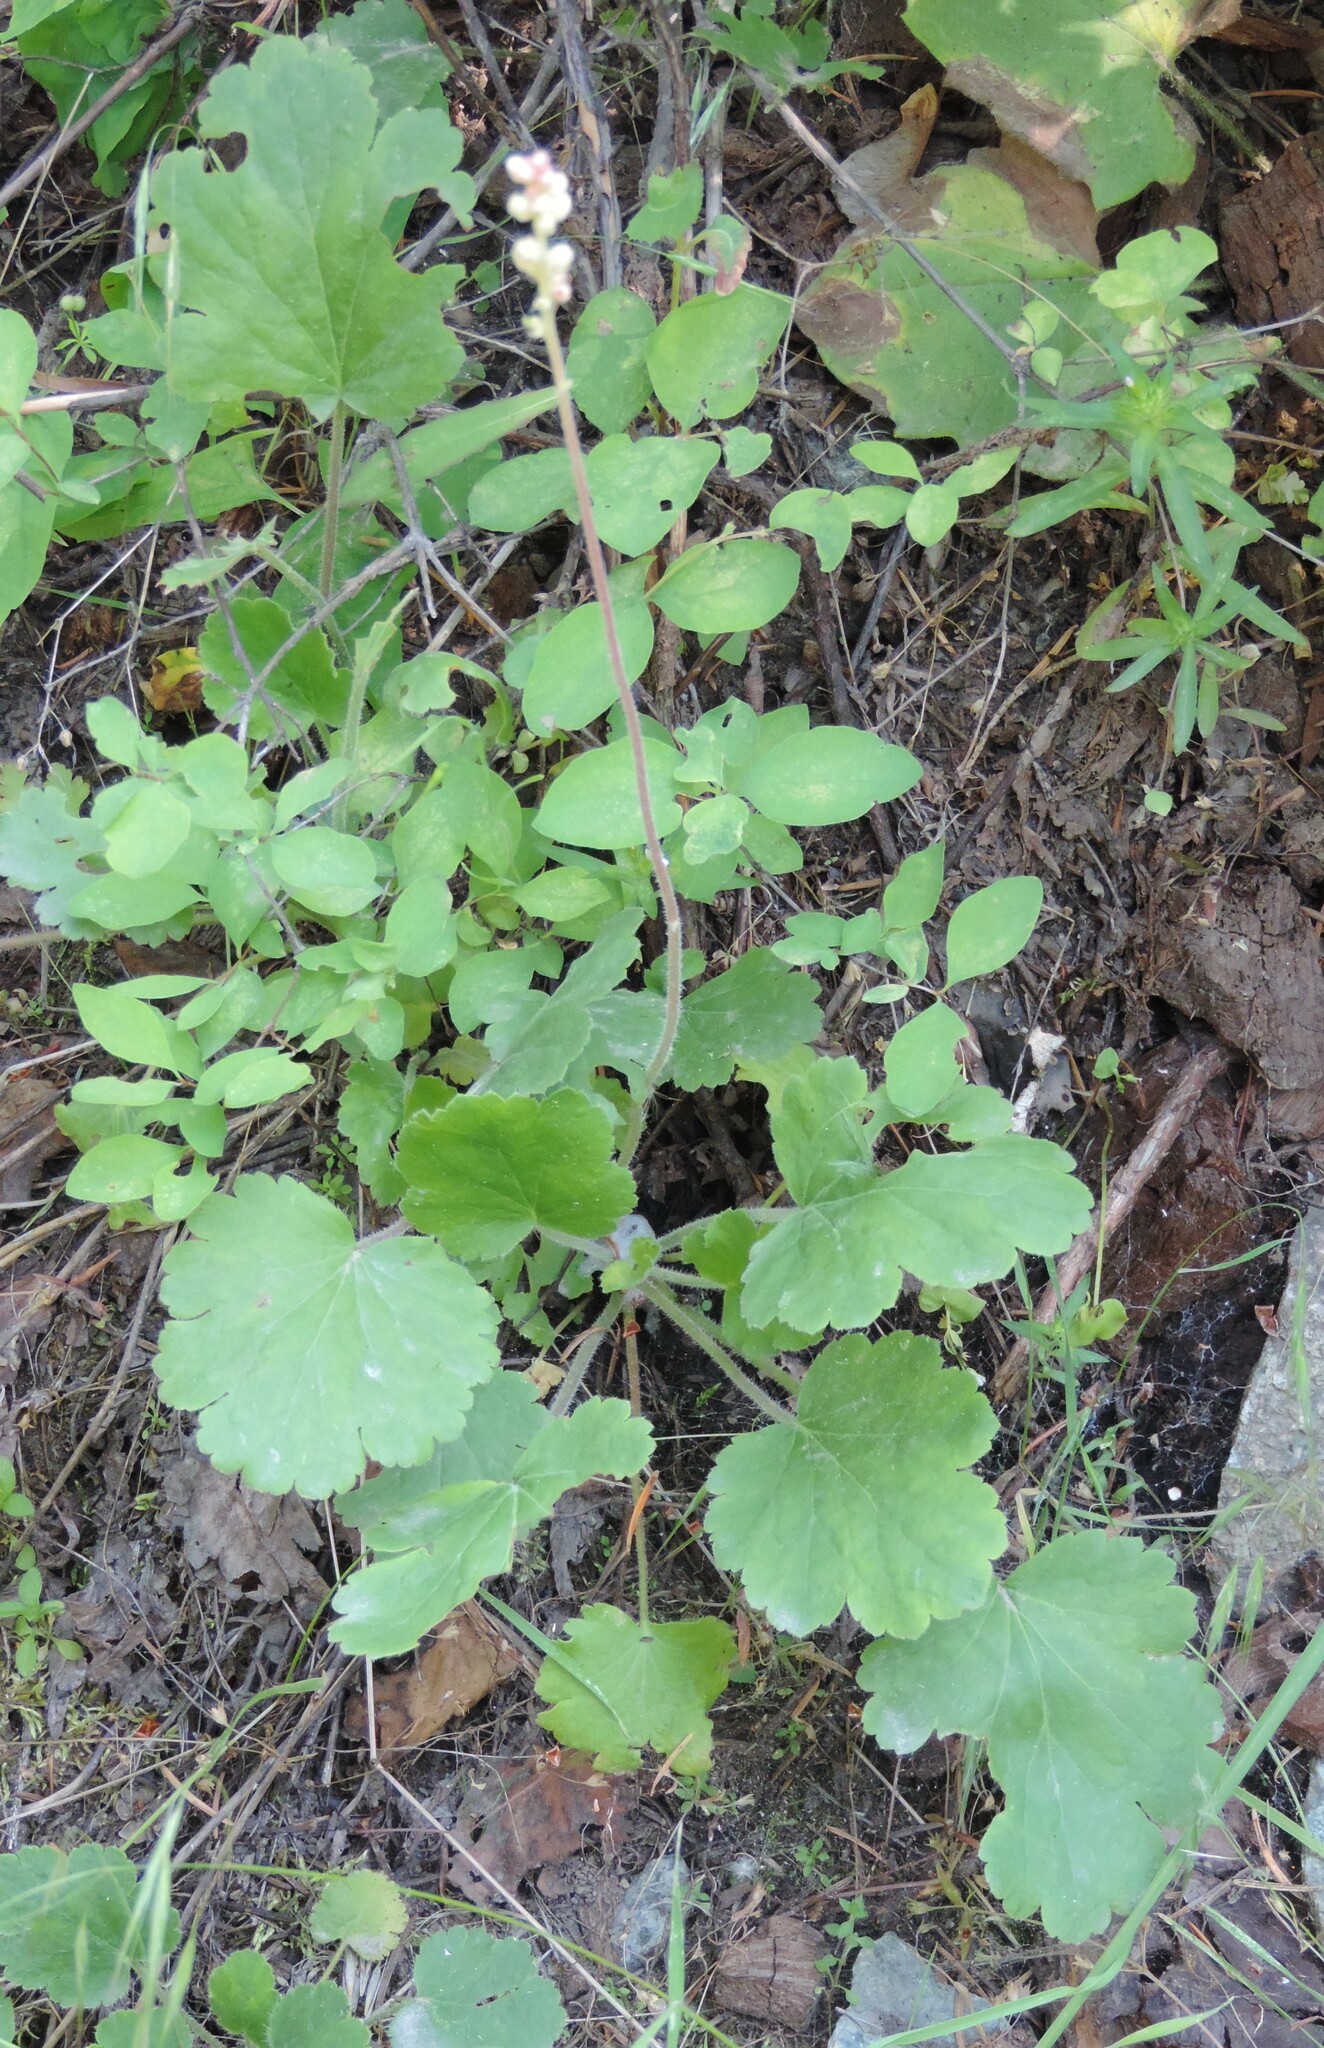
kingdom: Plantae
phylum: Tracheophyta
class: Magnoliopsida
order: Saxifragales
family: Saxifragaceae
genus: Heuchera
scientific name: Heuchera cylindrica
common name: Mat alumroot
